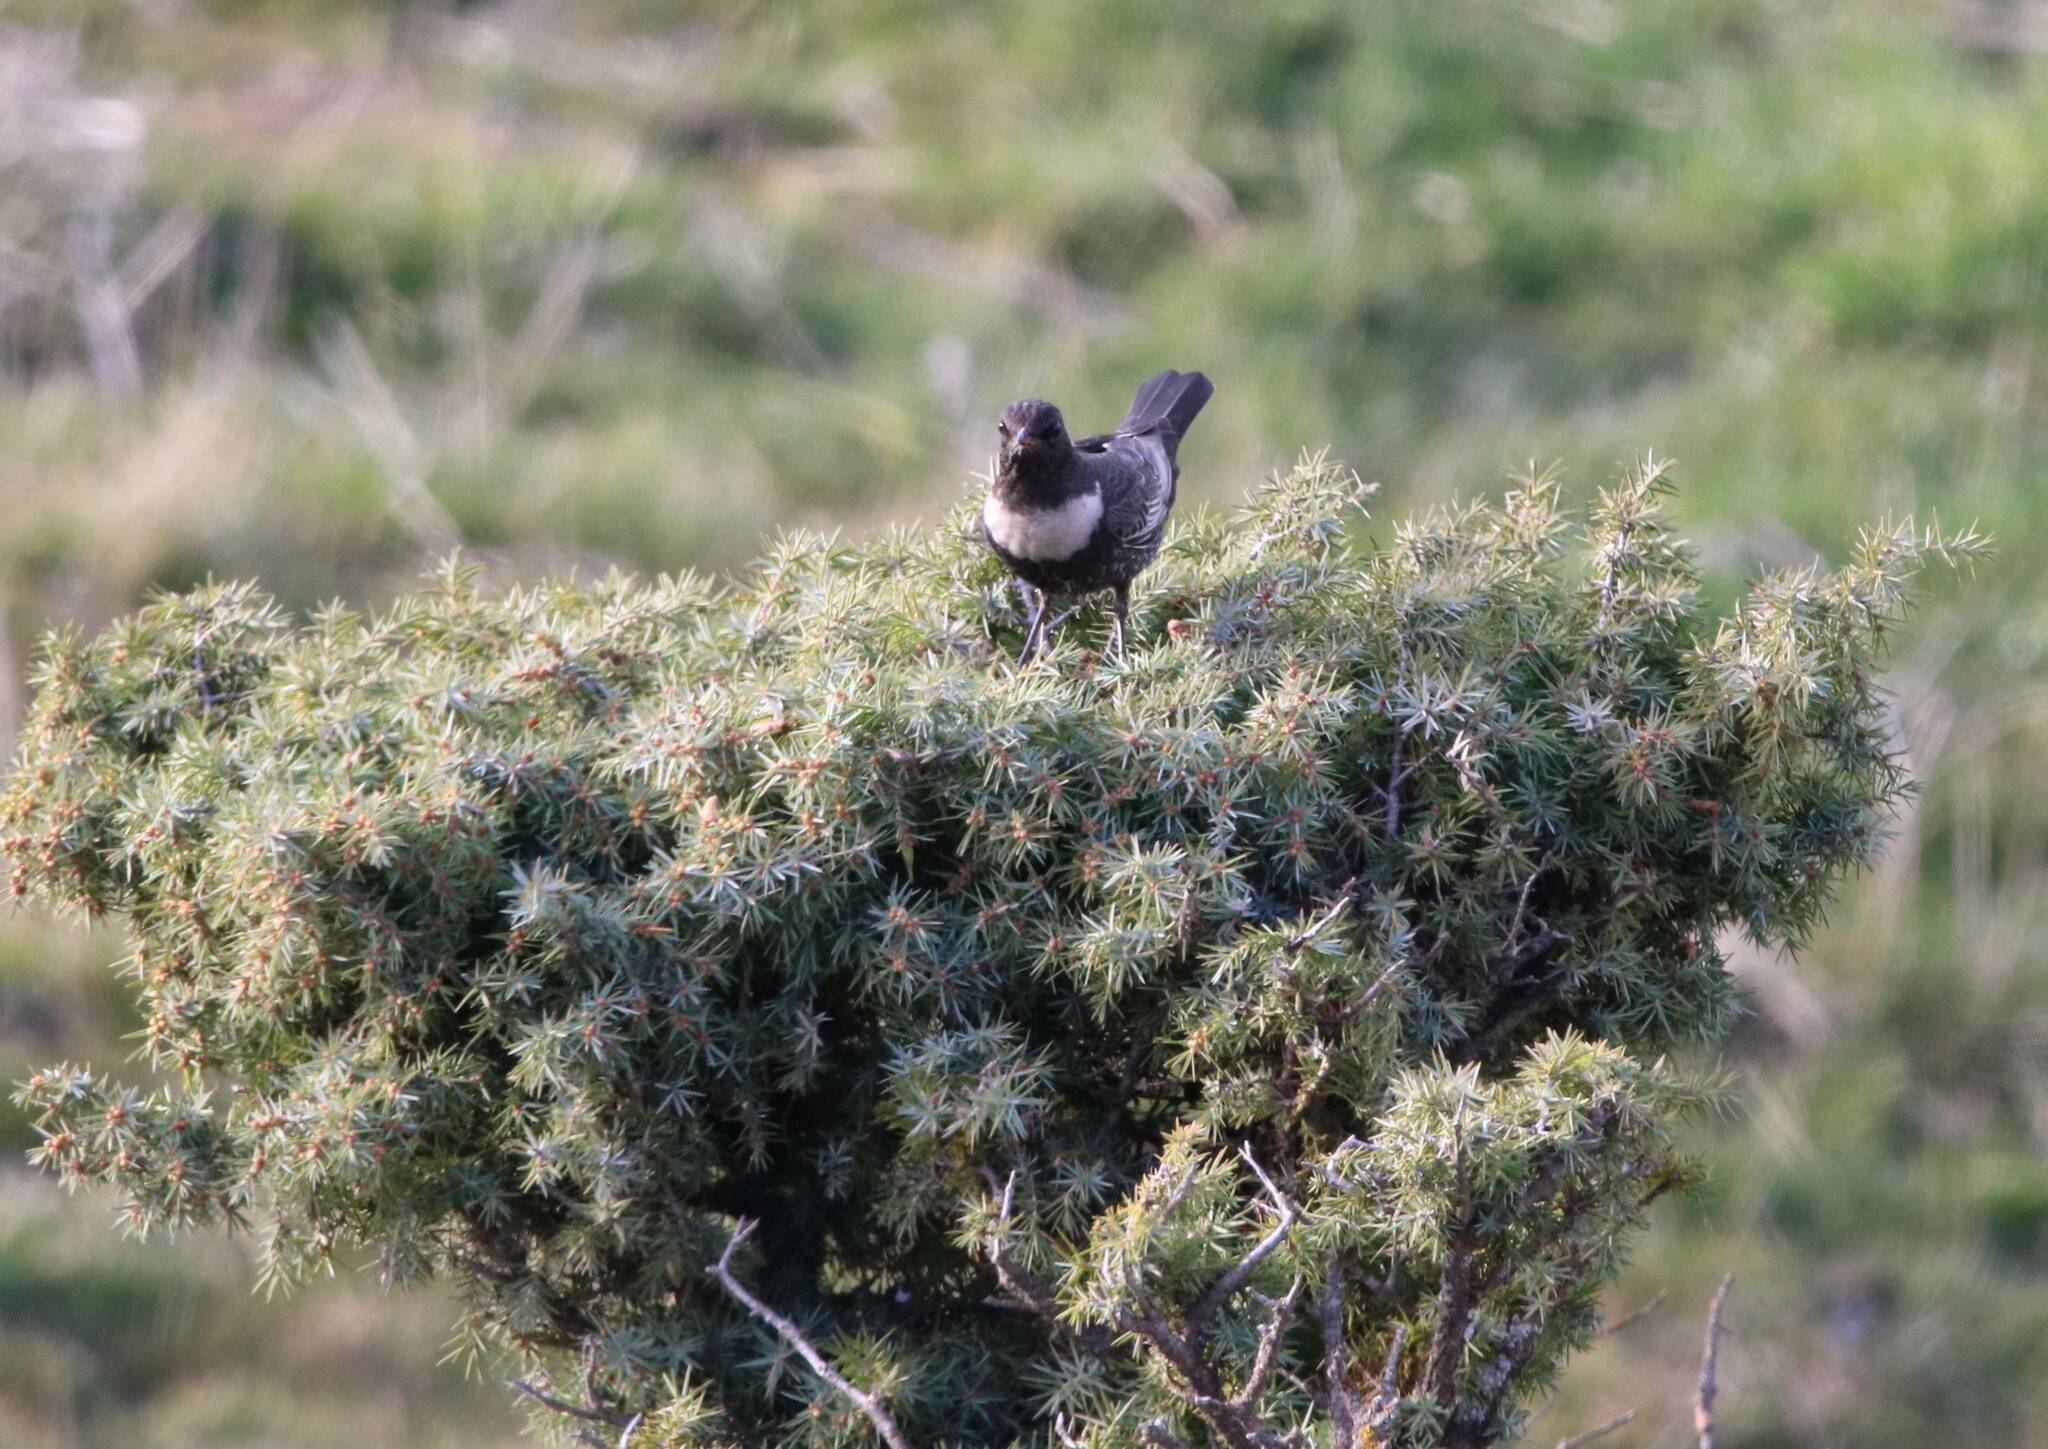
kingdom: Animalia
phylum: Chordata
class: Aves
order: Passeriformes
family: Turdidae
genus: Turdus
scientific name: Turdus torquatus
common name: Ring ouzel
